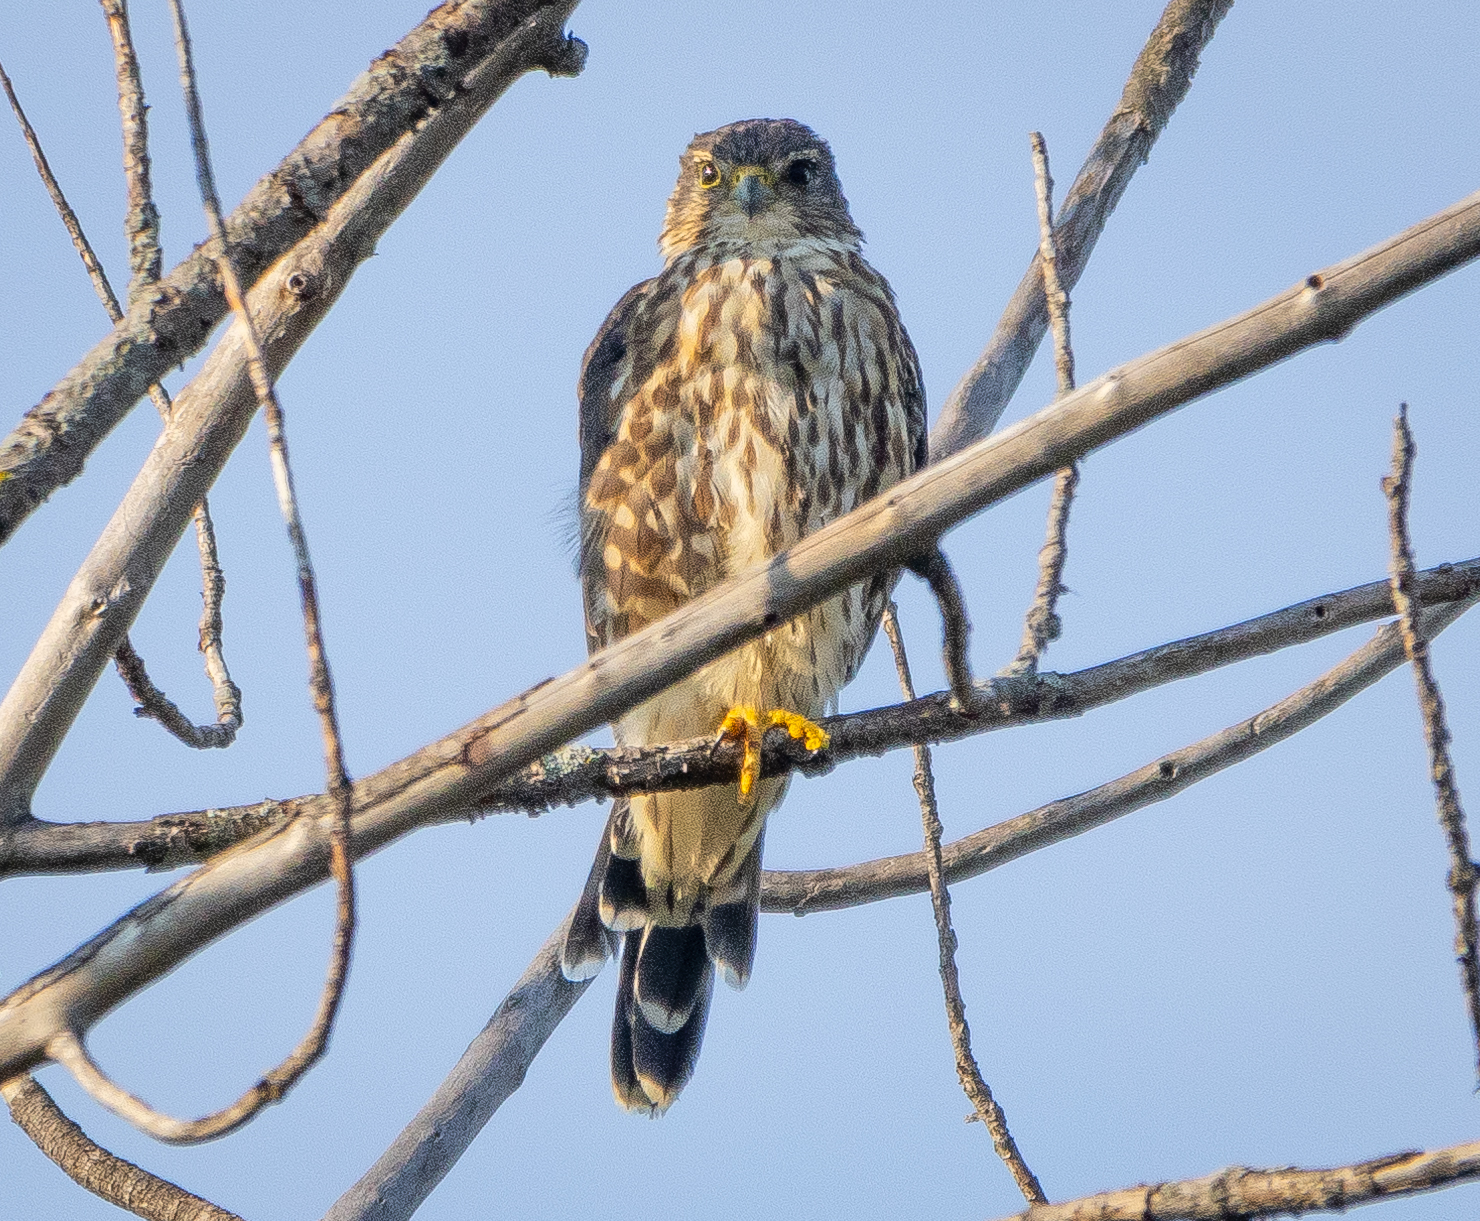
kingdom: Animalia
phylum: Chordata
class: Aves
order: Falconiformes
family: Falconidae
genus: Falco
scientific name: Falco columbarius
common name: Merlin
